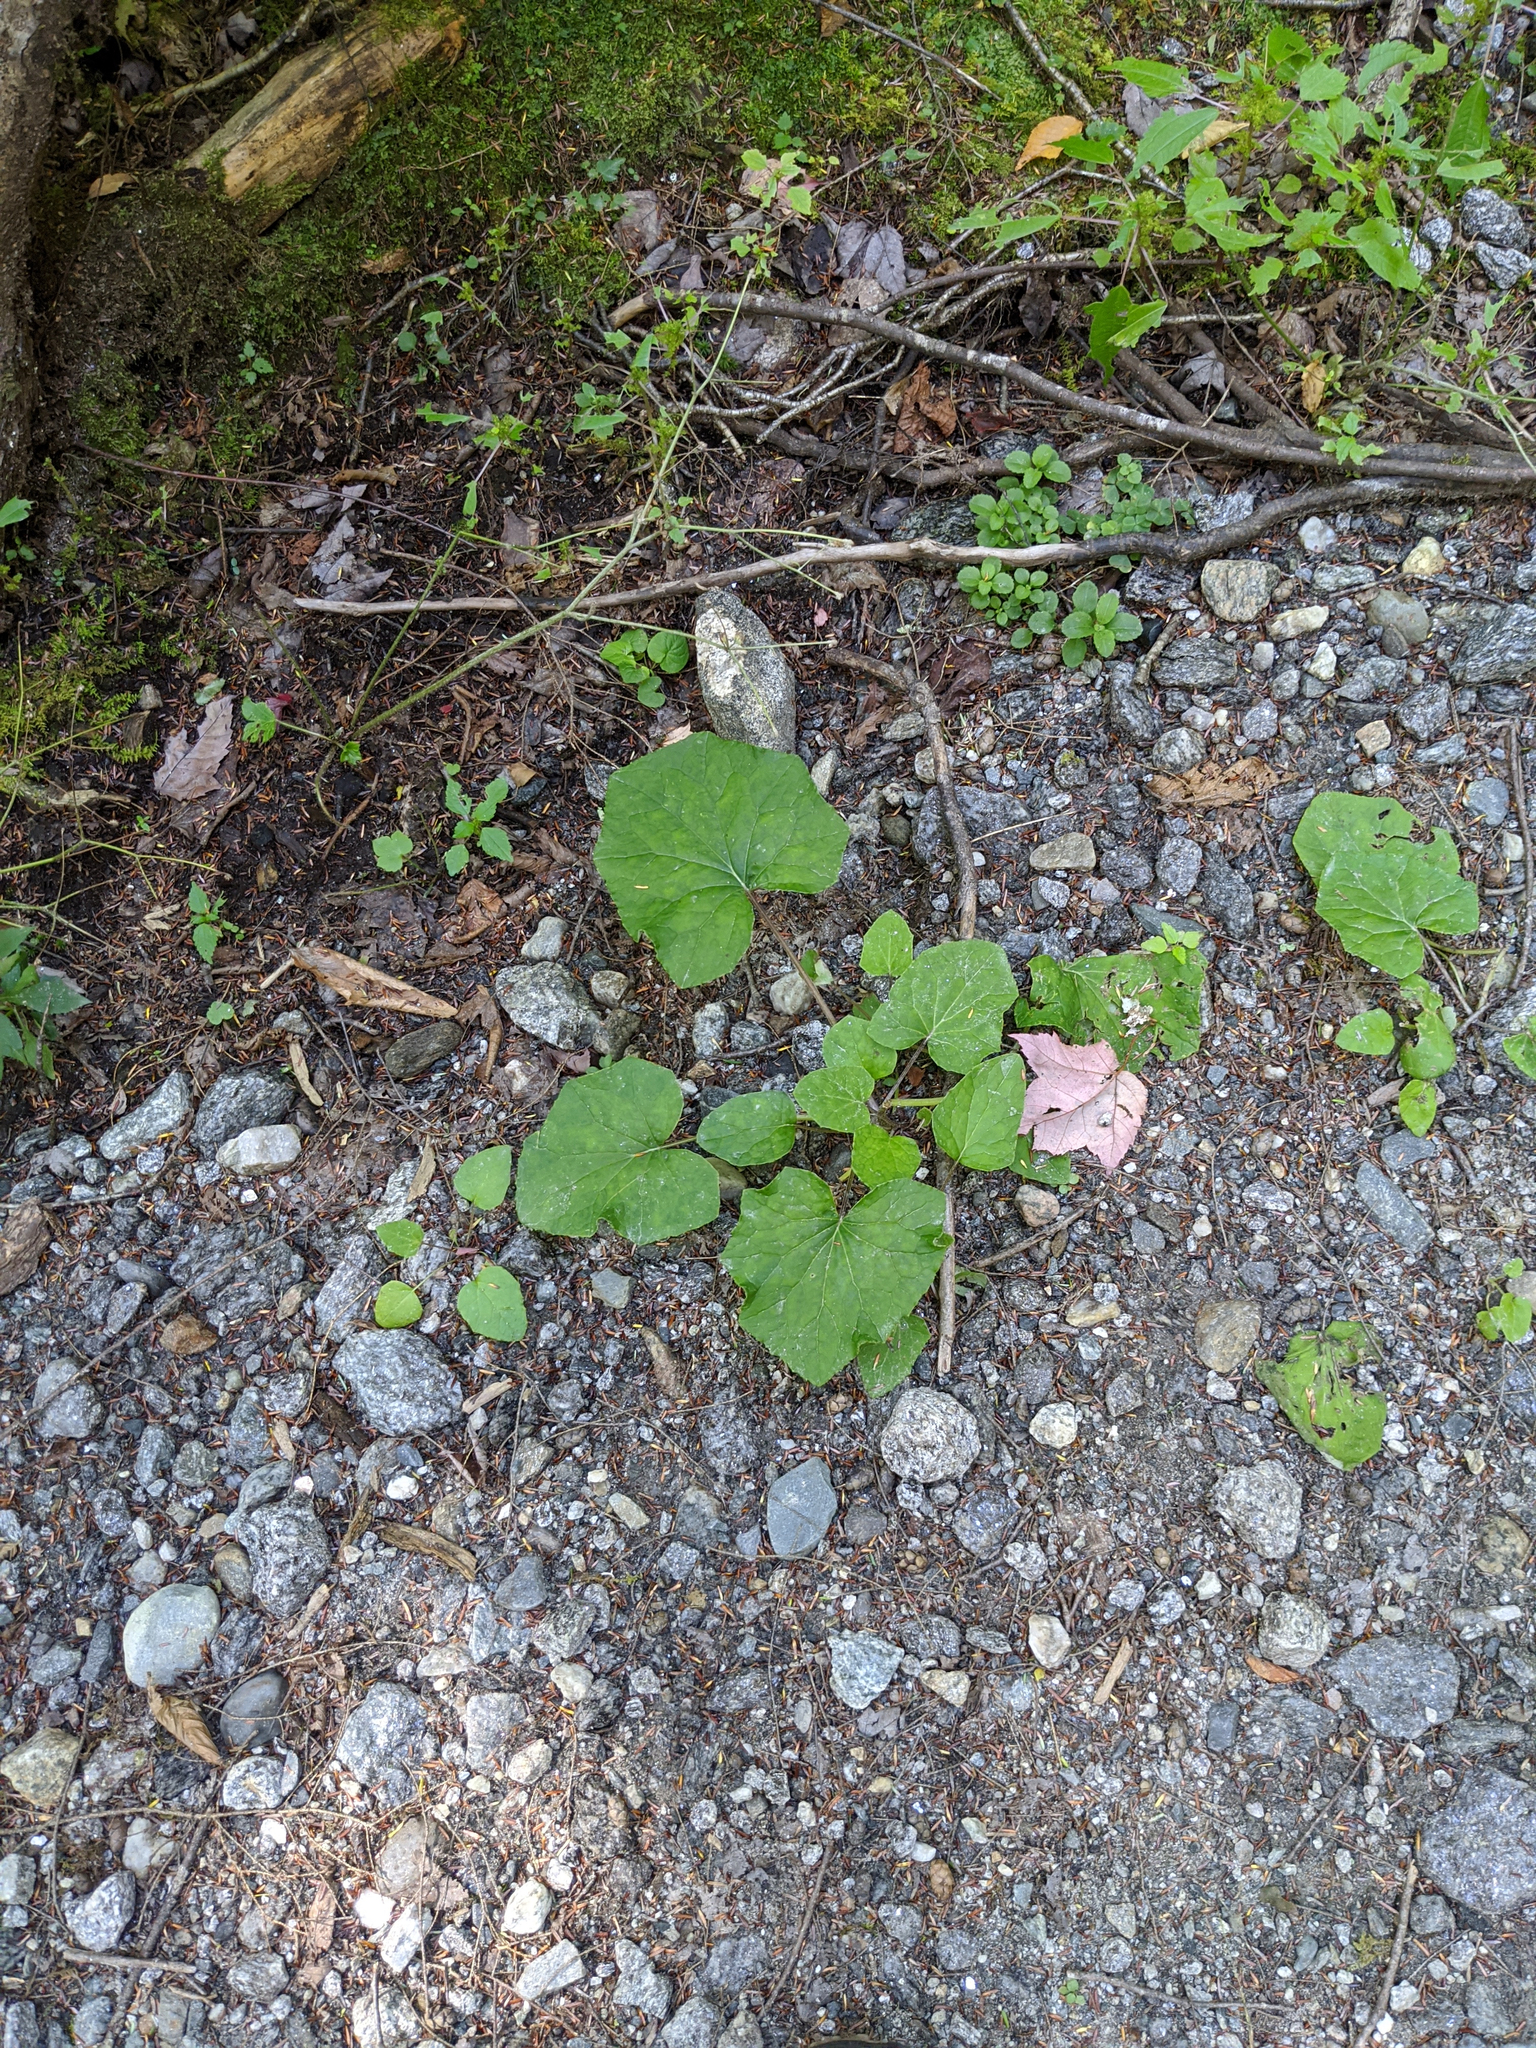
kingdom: Plantae
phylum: Tracheophyta
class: Magnoliopsida
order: Asterales
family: Asteraceae
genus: Tussilago
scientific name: Tussilago farfara
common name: Coltsfoot
